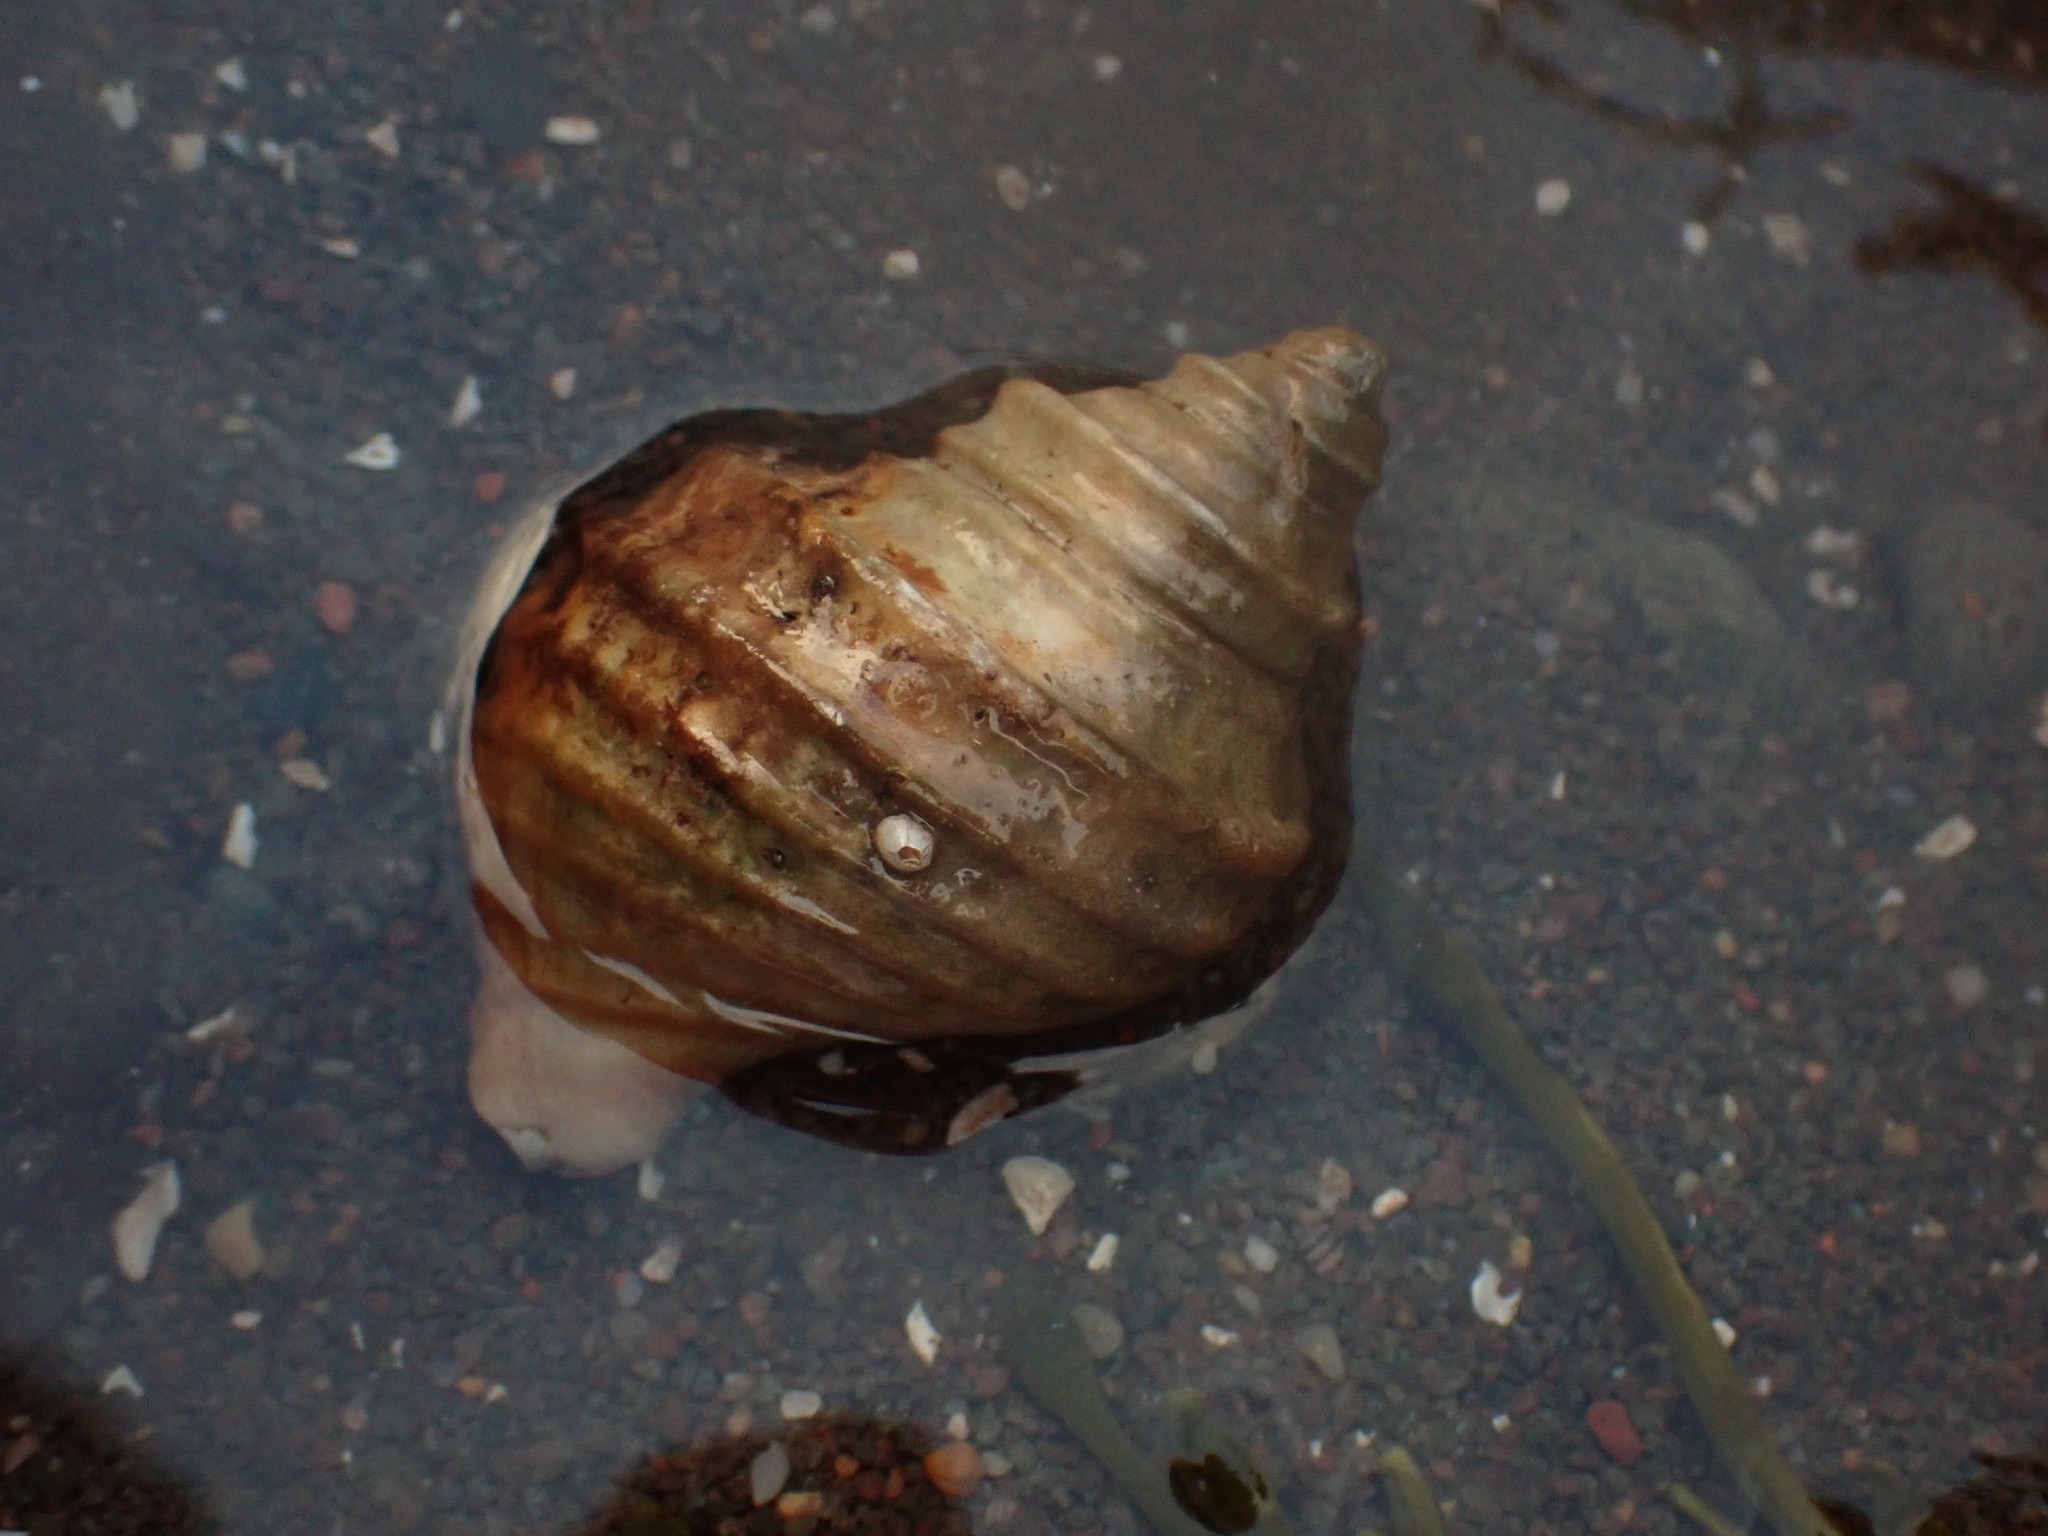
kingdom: Animalia
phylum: Mollusca
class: Gastropoda
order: Neogastropoda
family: Buccinidae
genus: Neptunea
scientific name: Neptunea decemcostata
